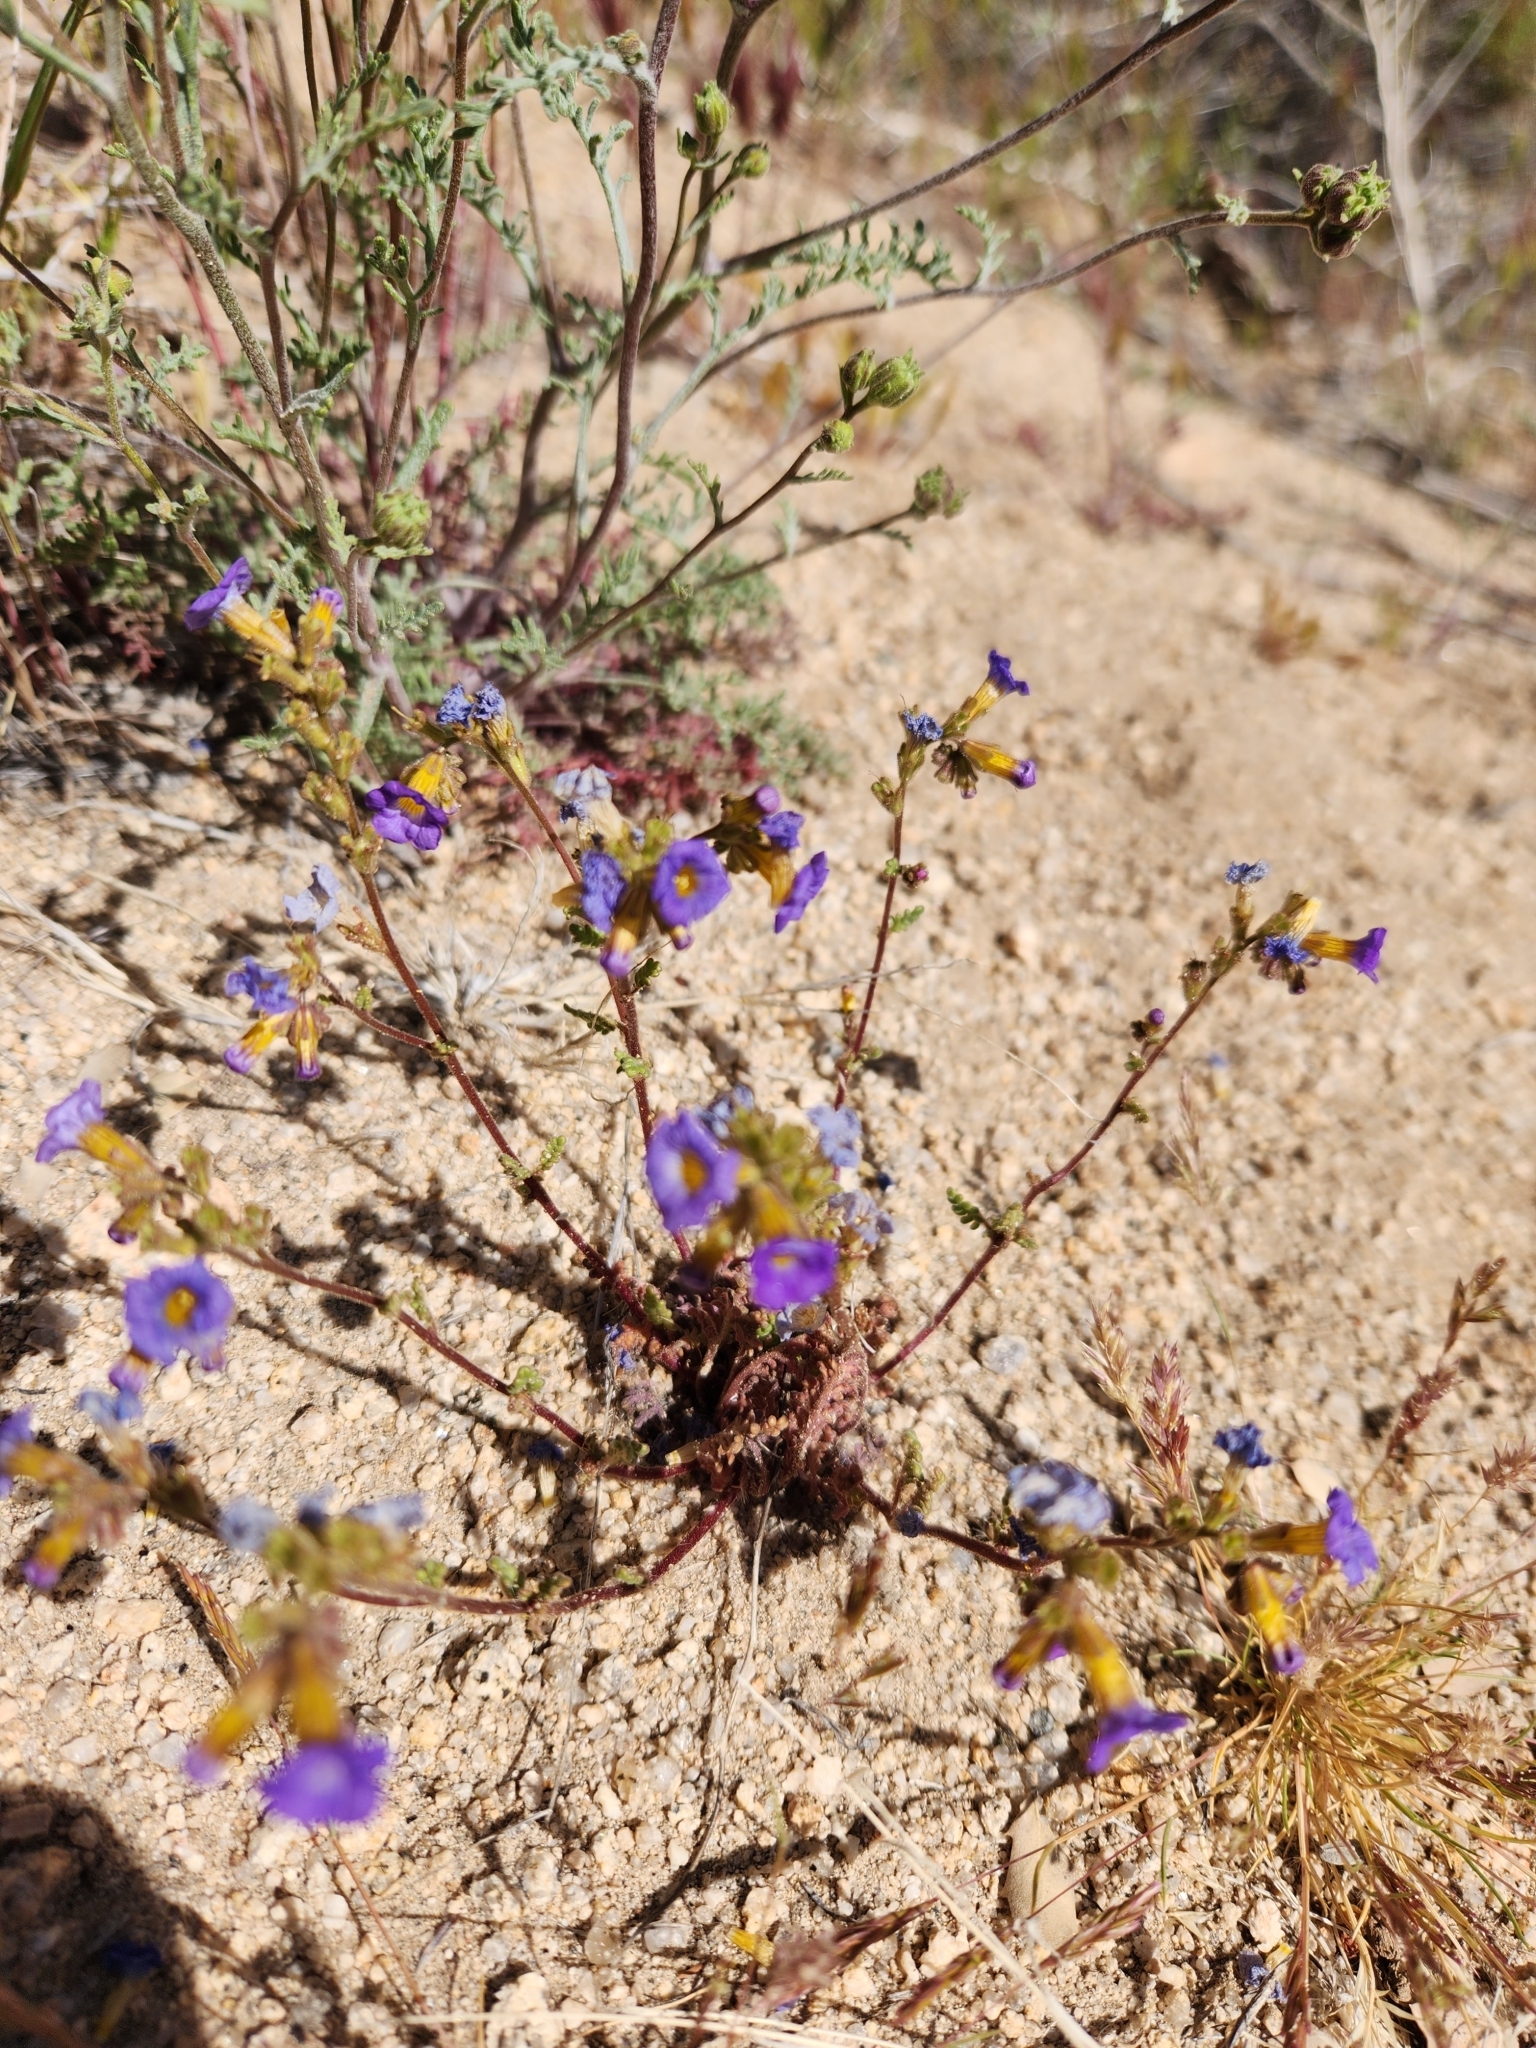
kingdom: Plantae
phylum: Tracheophyta
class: Magnoliopsida
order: Boraginales
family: Hydrophyllaceae
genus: Phacelia
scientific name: Phacelia fremontii
